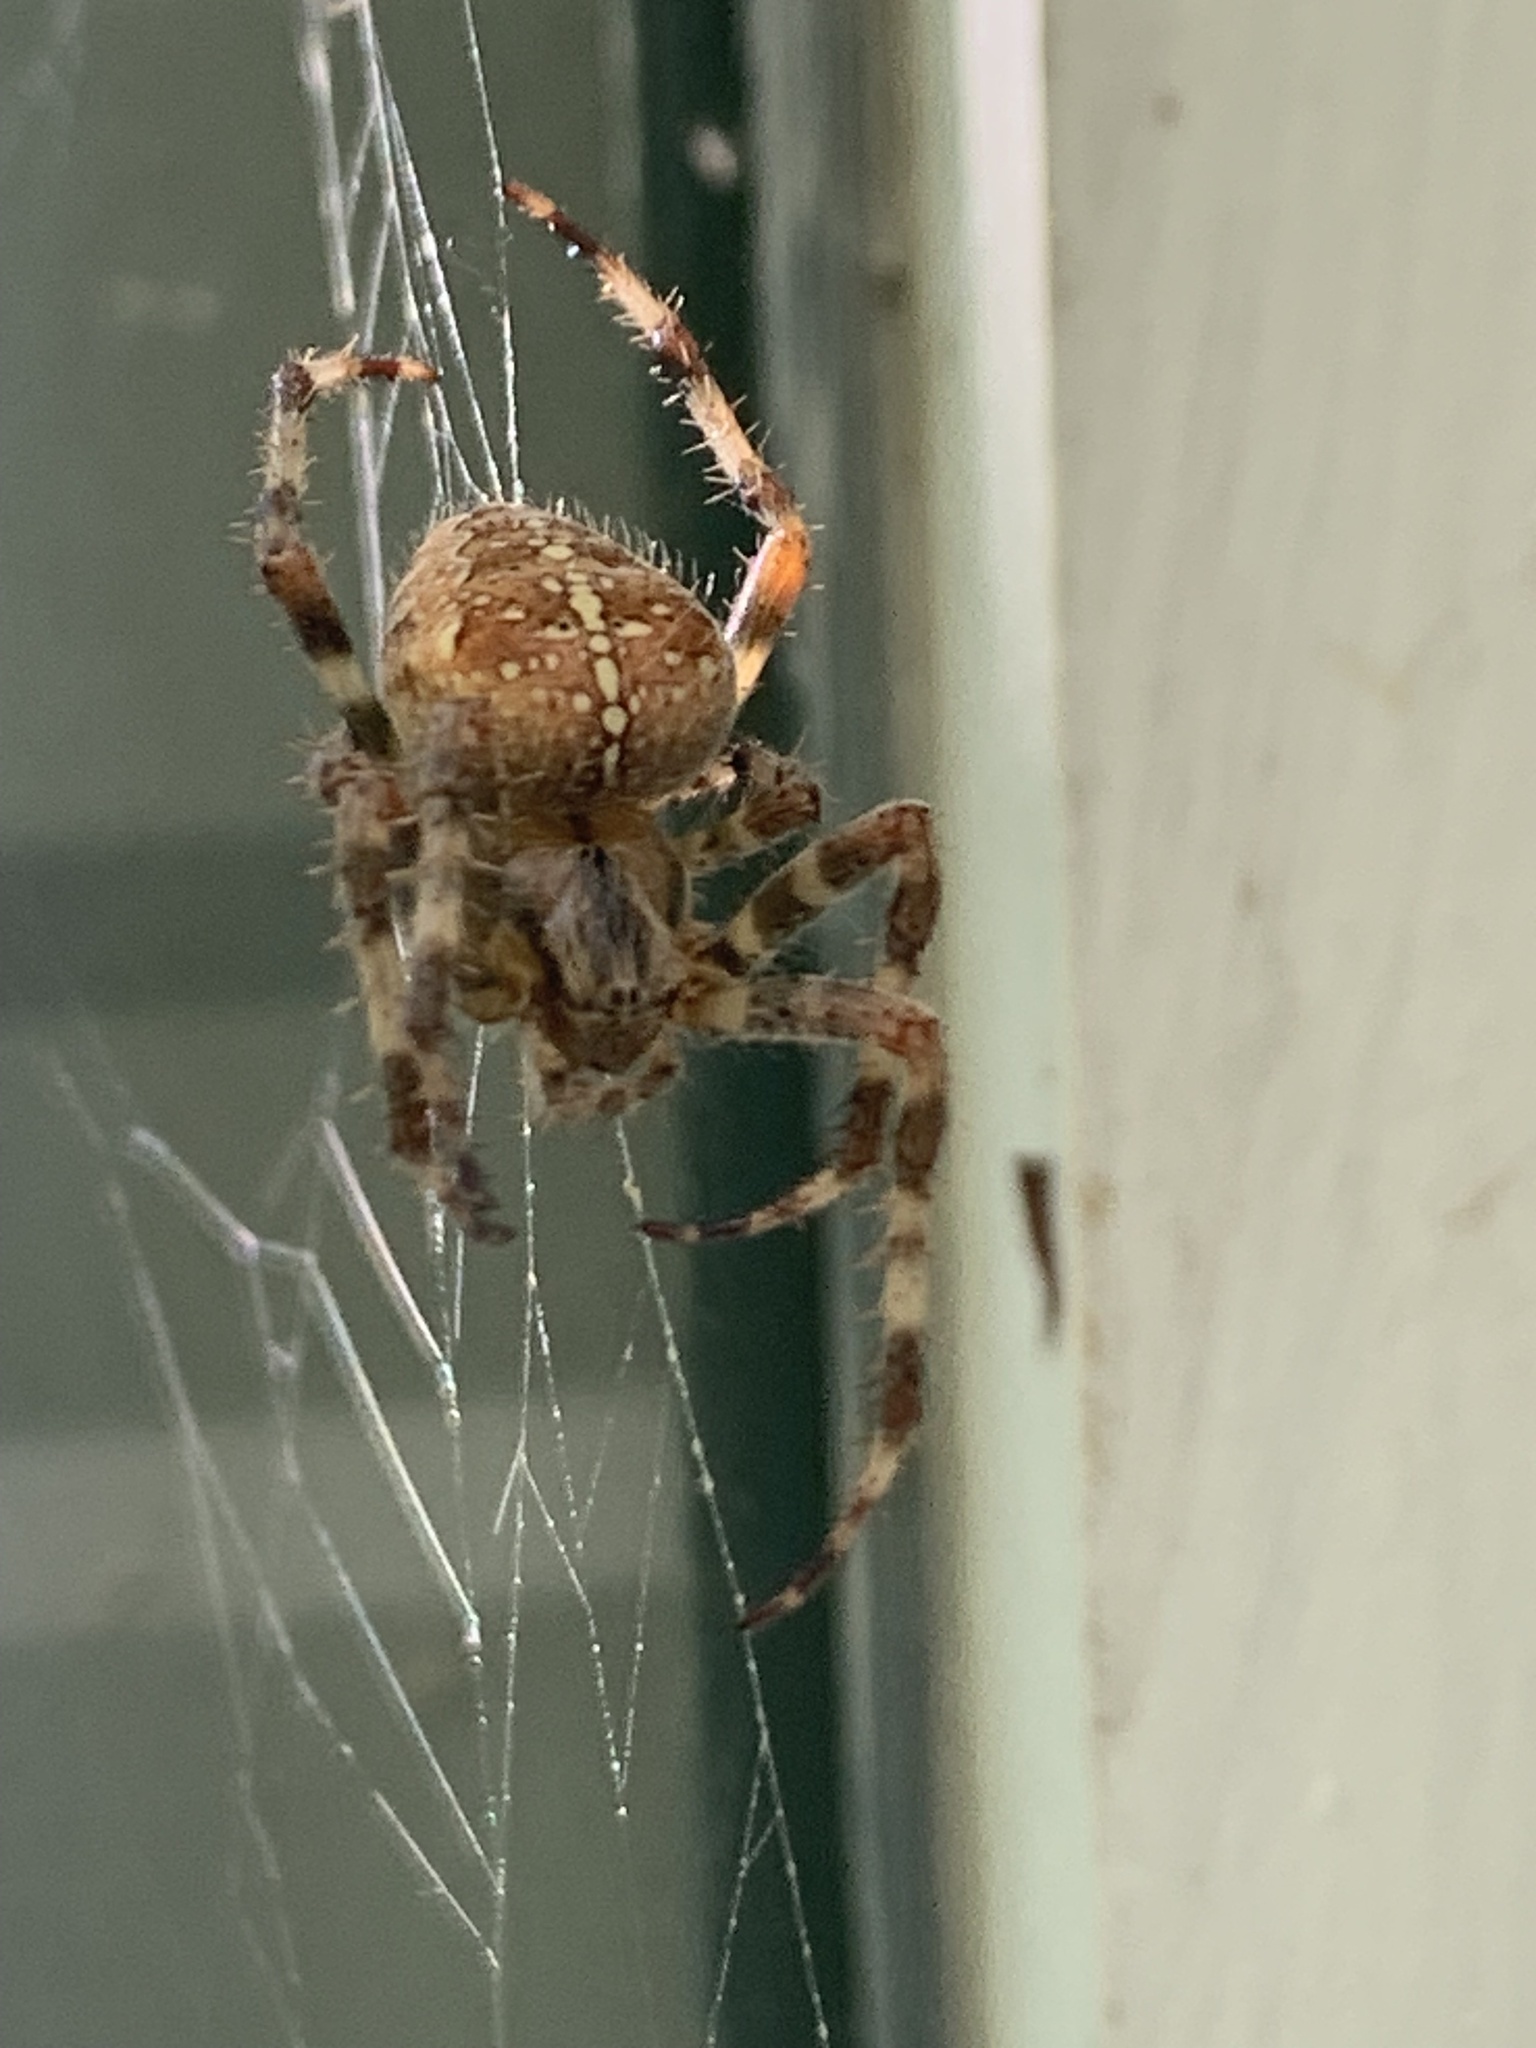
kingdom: Animalia
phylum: Arthropoda
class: Arachnida
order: Araneae
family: Araneidae
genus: Araneus
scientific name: Araneus diadematus
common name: Cross orbweaver
